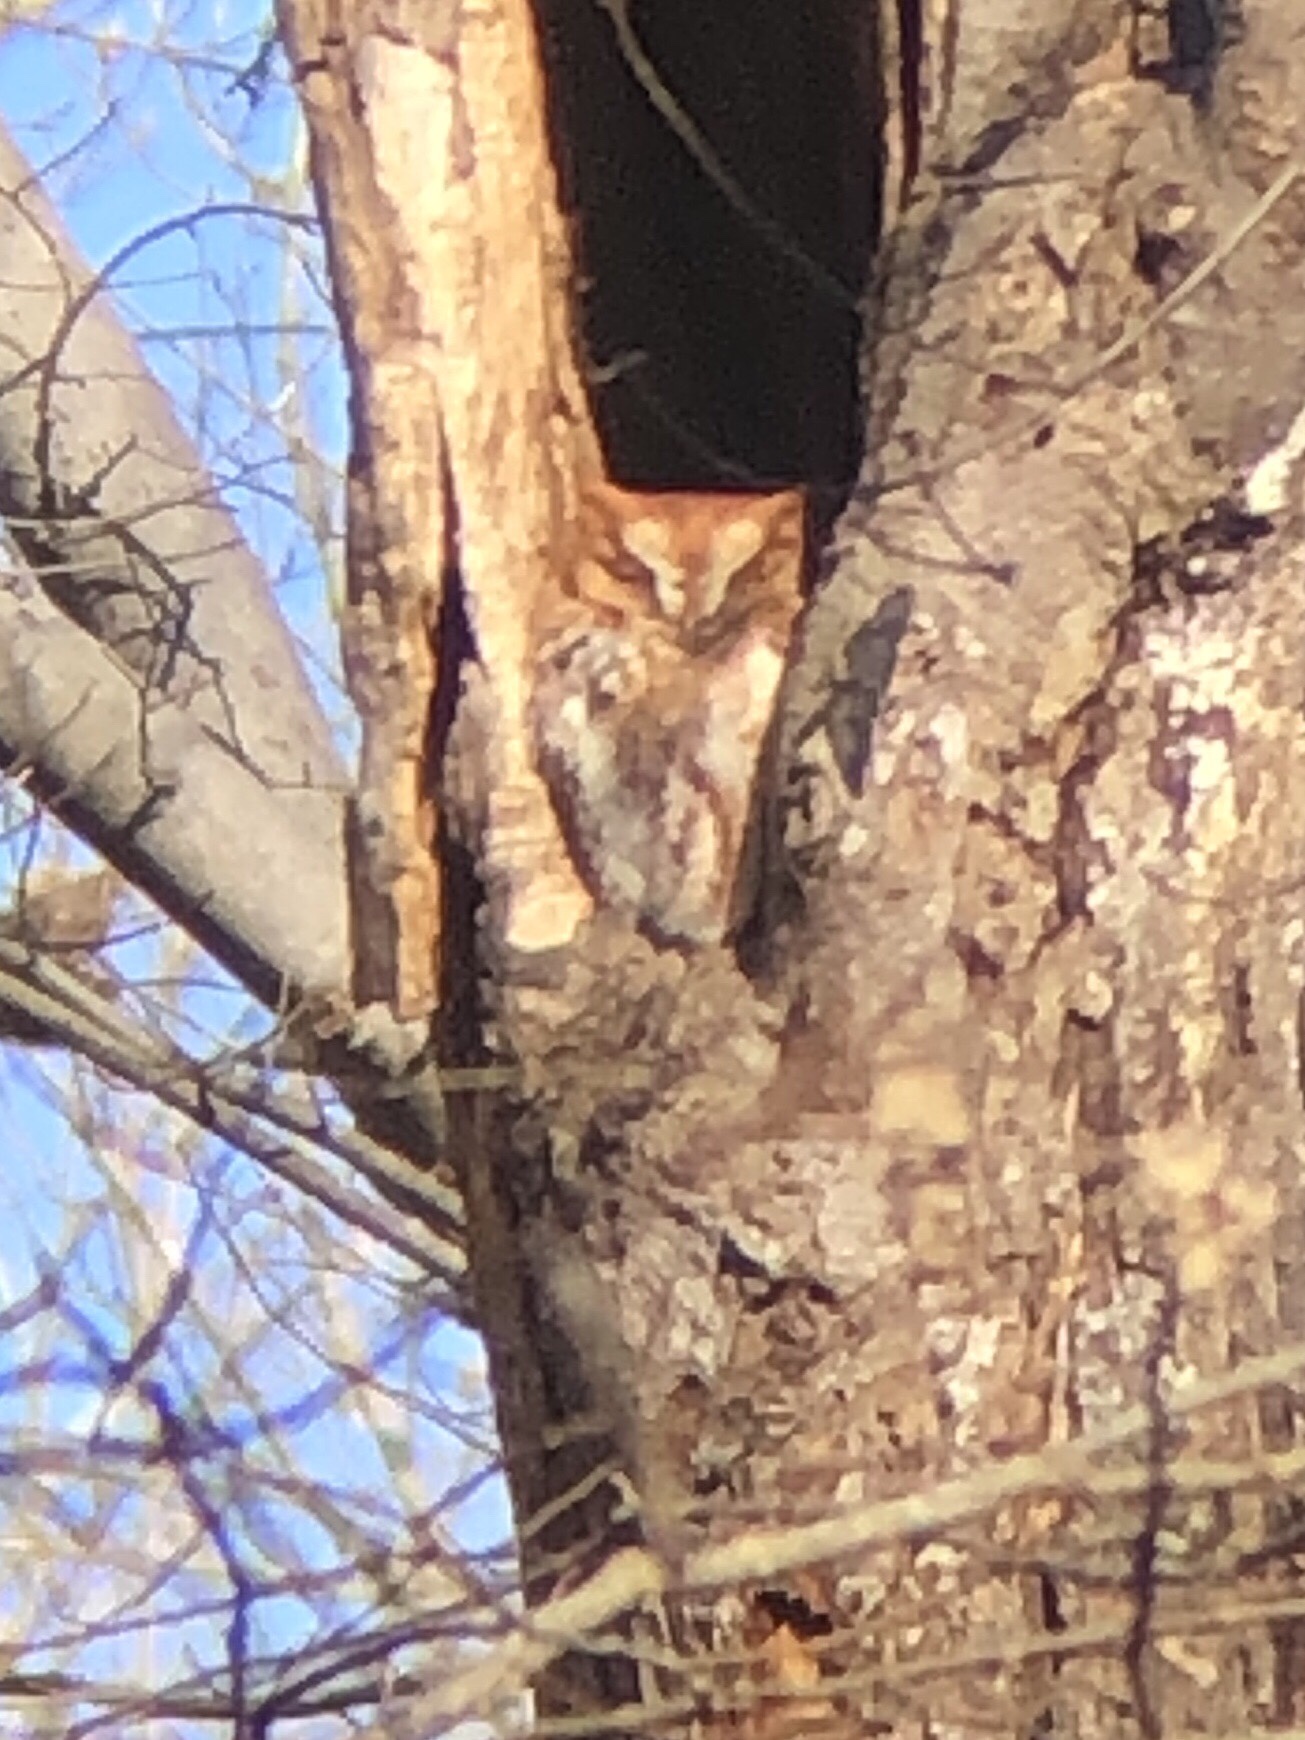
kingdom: Animalia
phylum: Chordata
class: Aves
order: Strigiformes
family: Strigidae
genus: Megascops
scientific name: Megascops asio
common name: Eastern screech-owl
